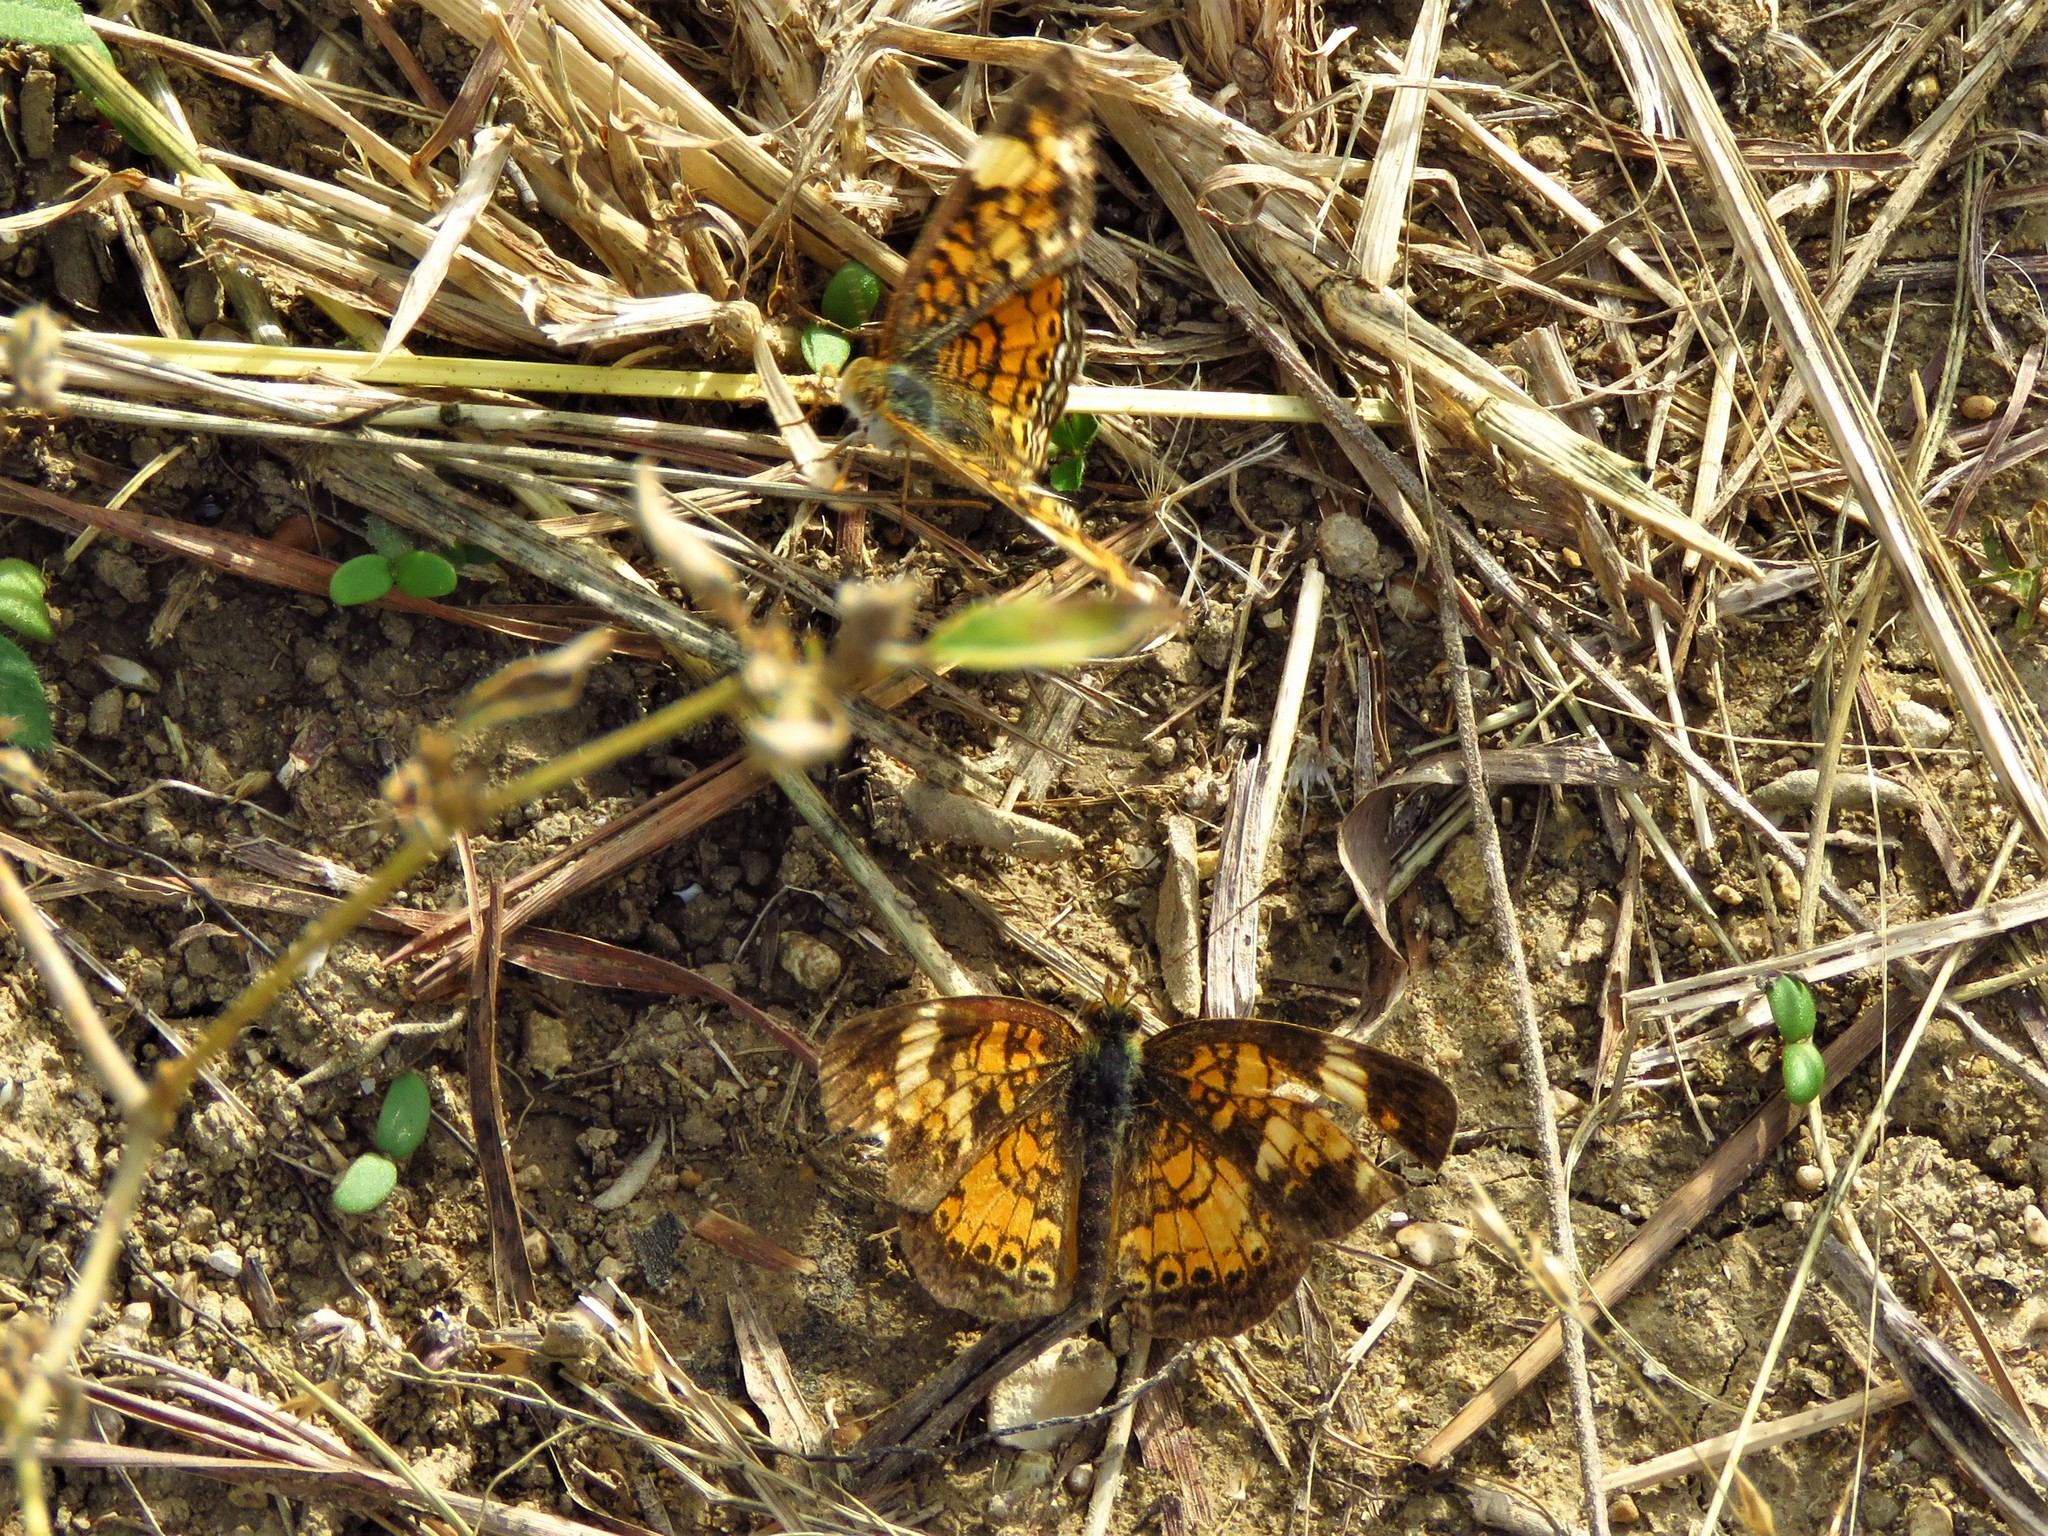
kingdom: Animalia
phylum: Arthropoda
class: Insecta
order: Lepidoptera
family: Nymphalidae
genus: Phyciodes
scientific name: Phyciodes tharos
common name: Pearl crescent
